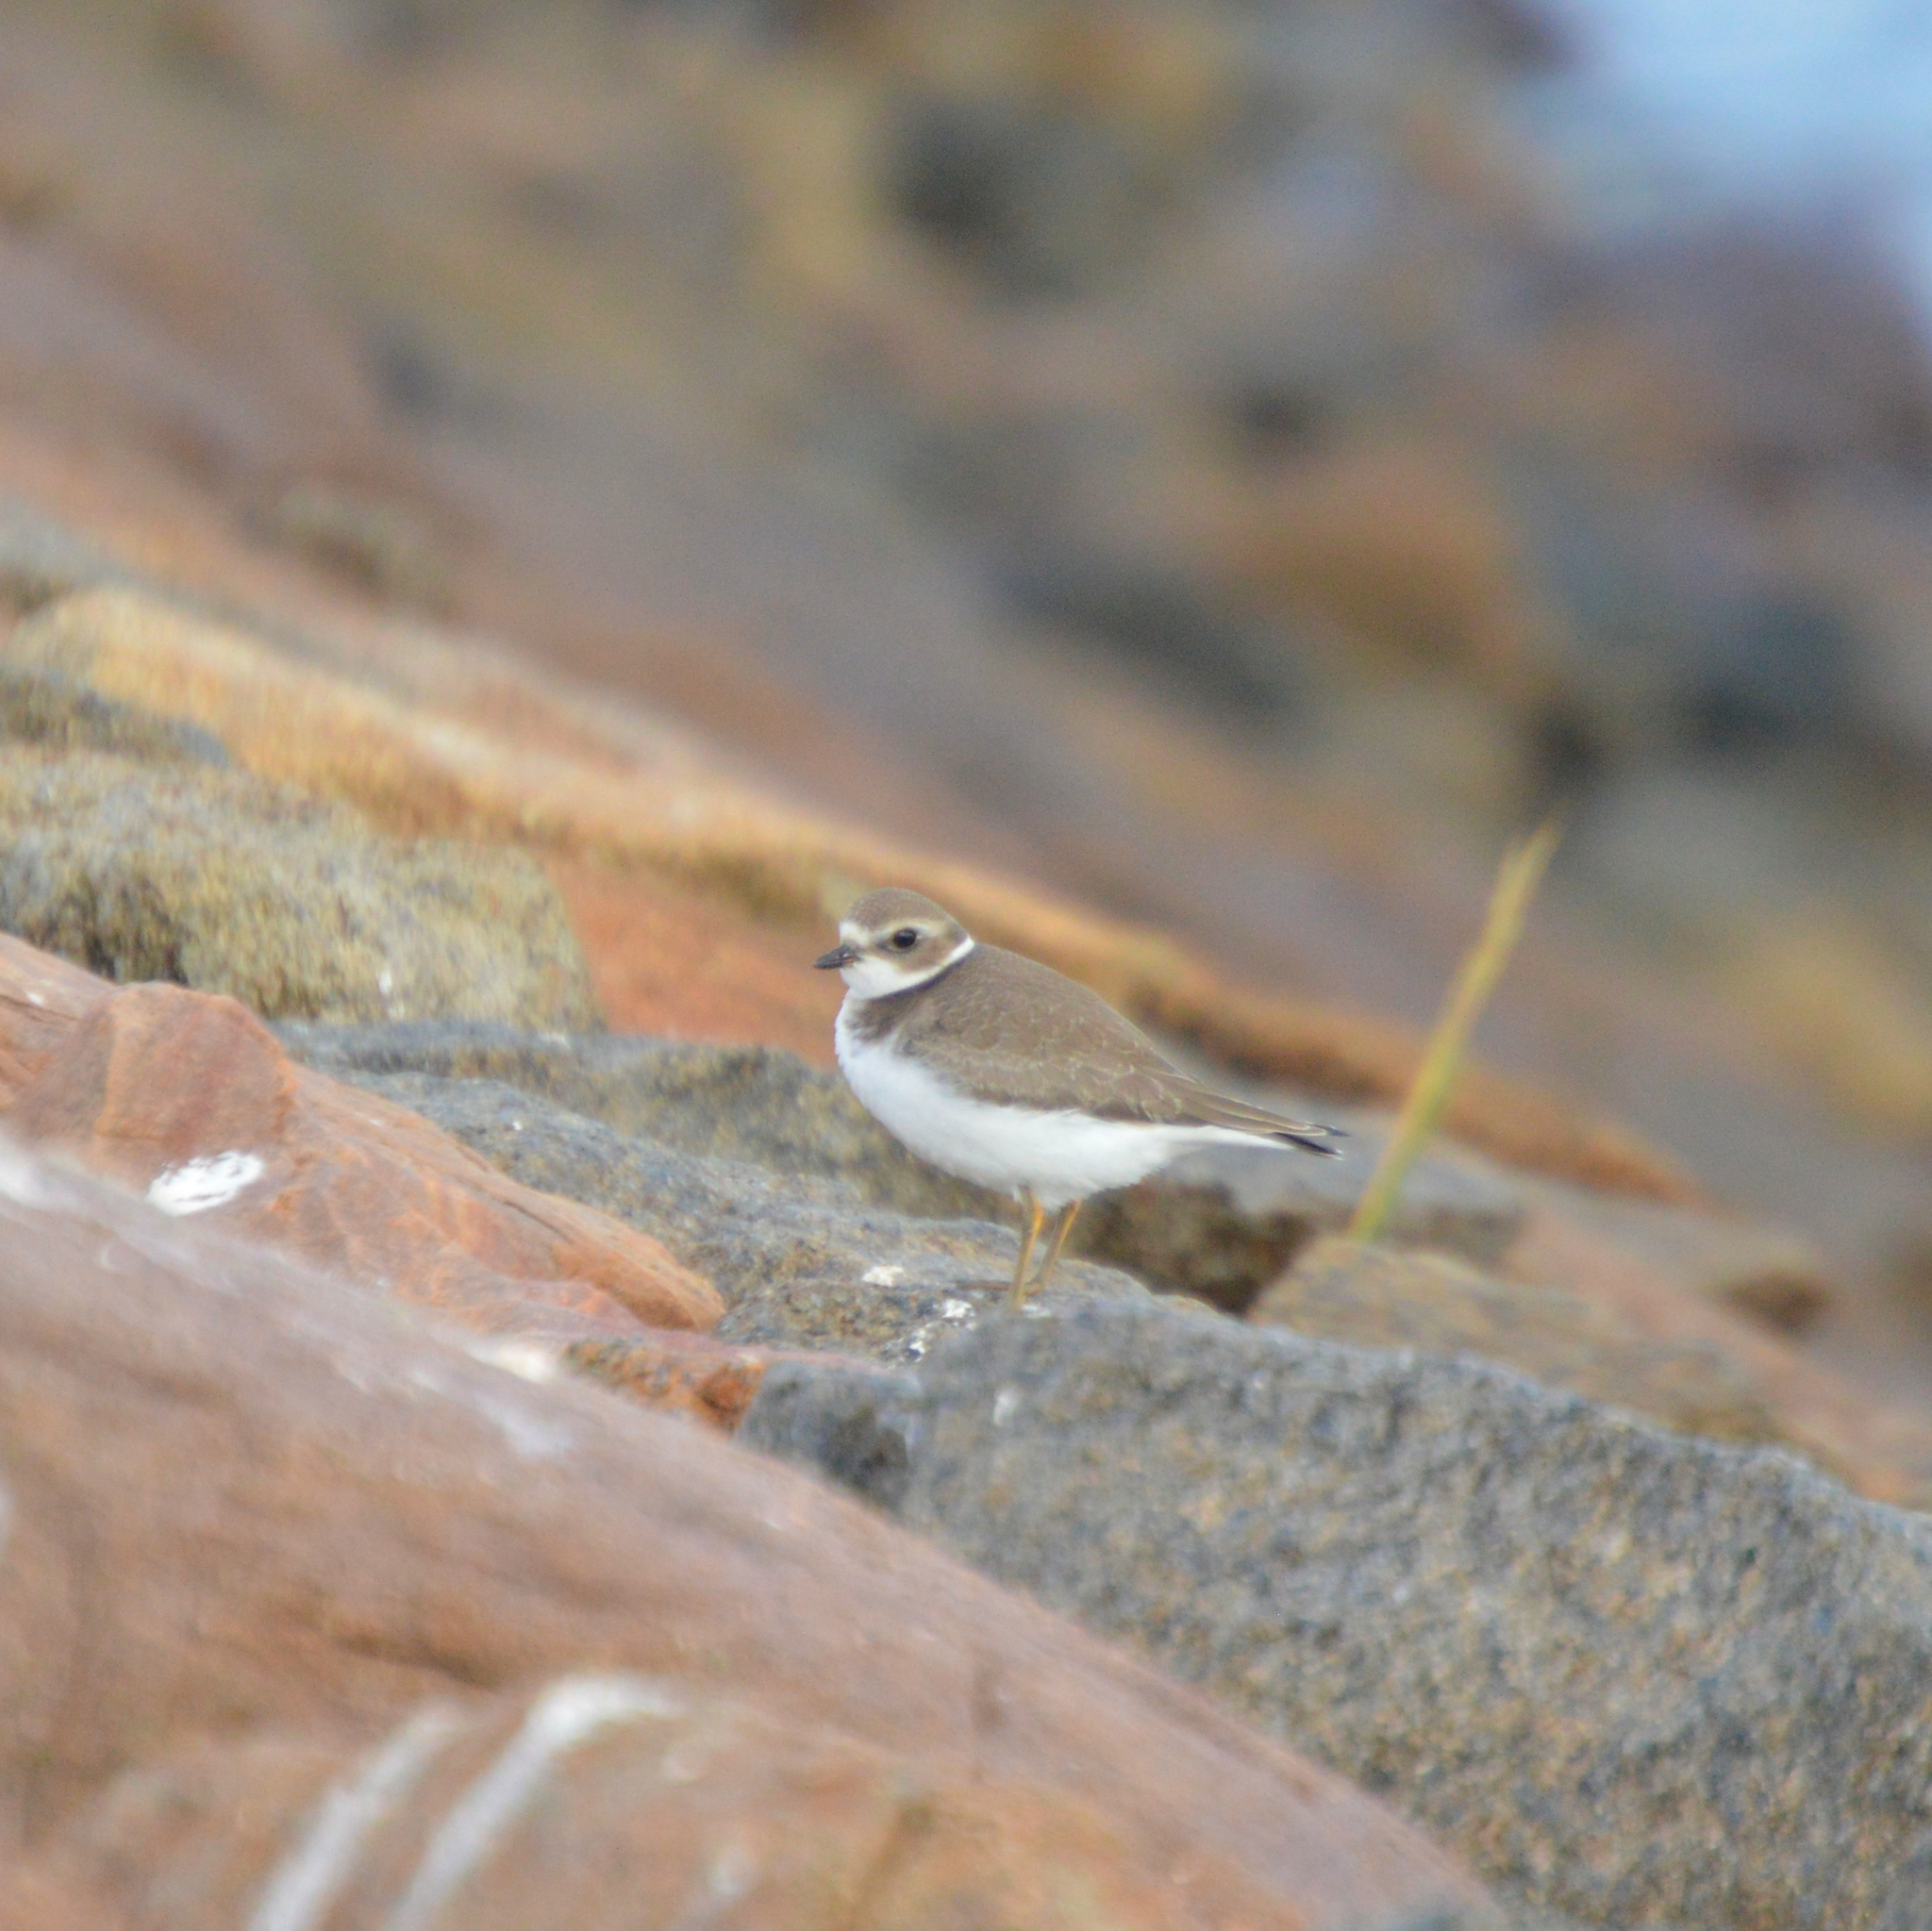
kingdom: Animalia
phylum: Chordata
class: Aves
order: Charadriiformes
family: Charadriidae
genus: Charadrius
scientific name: Charadrius semipalmatus
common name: Semipalmated plover
